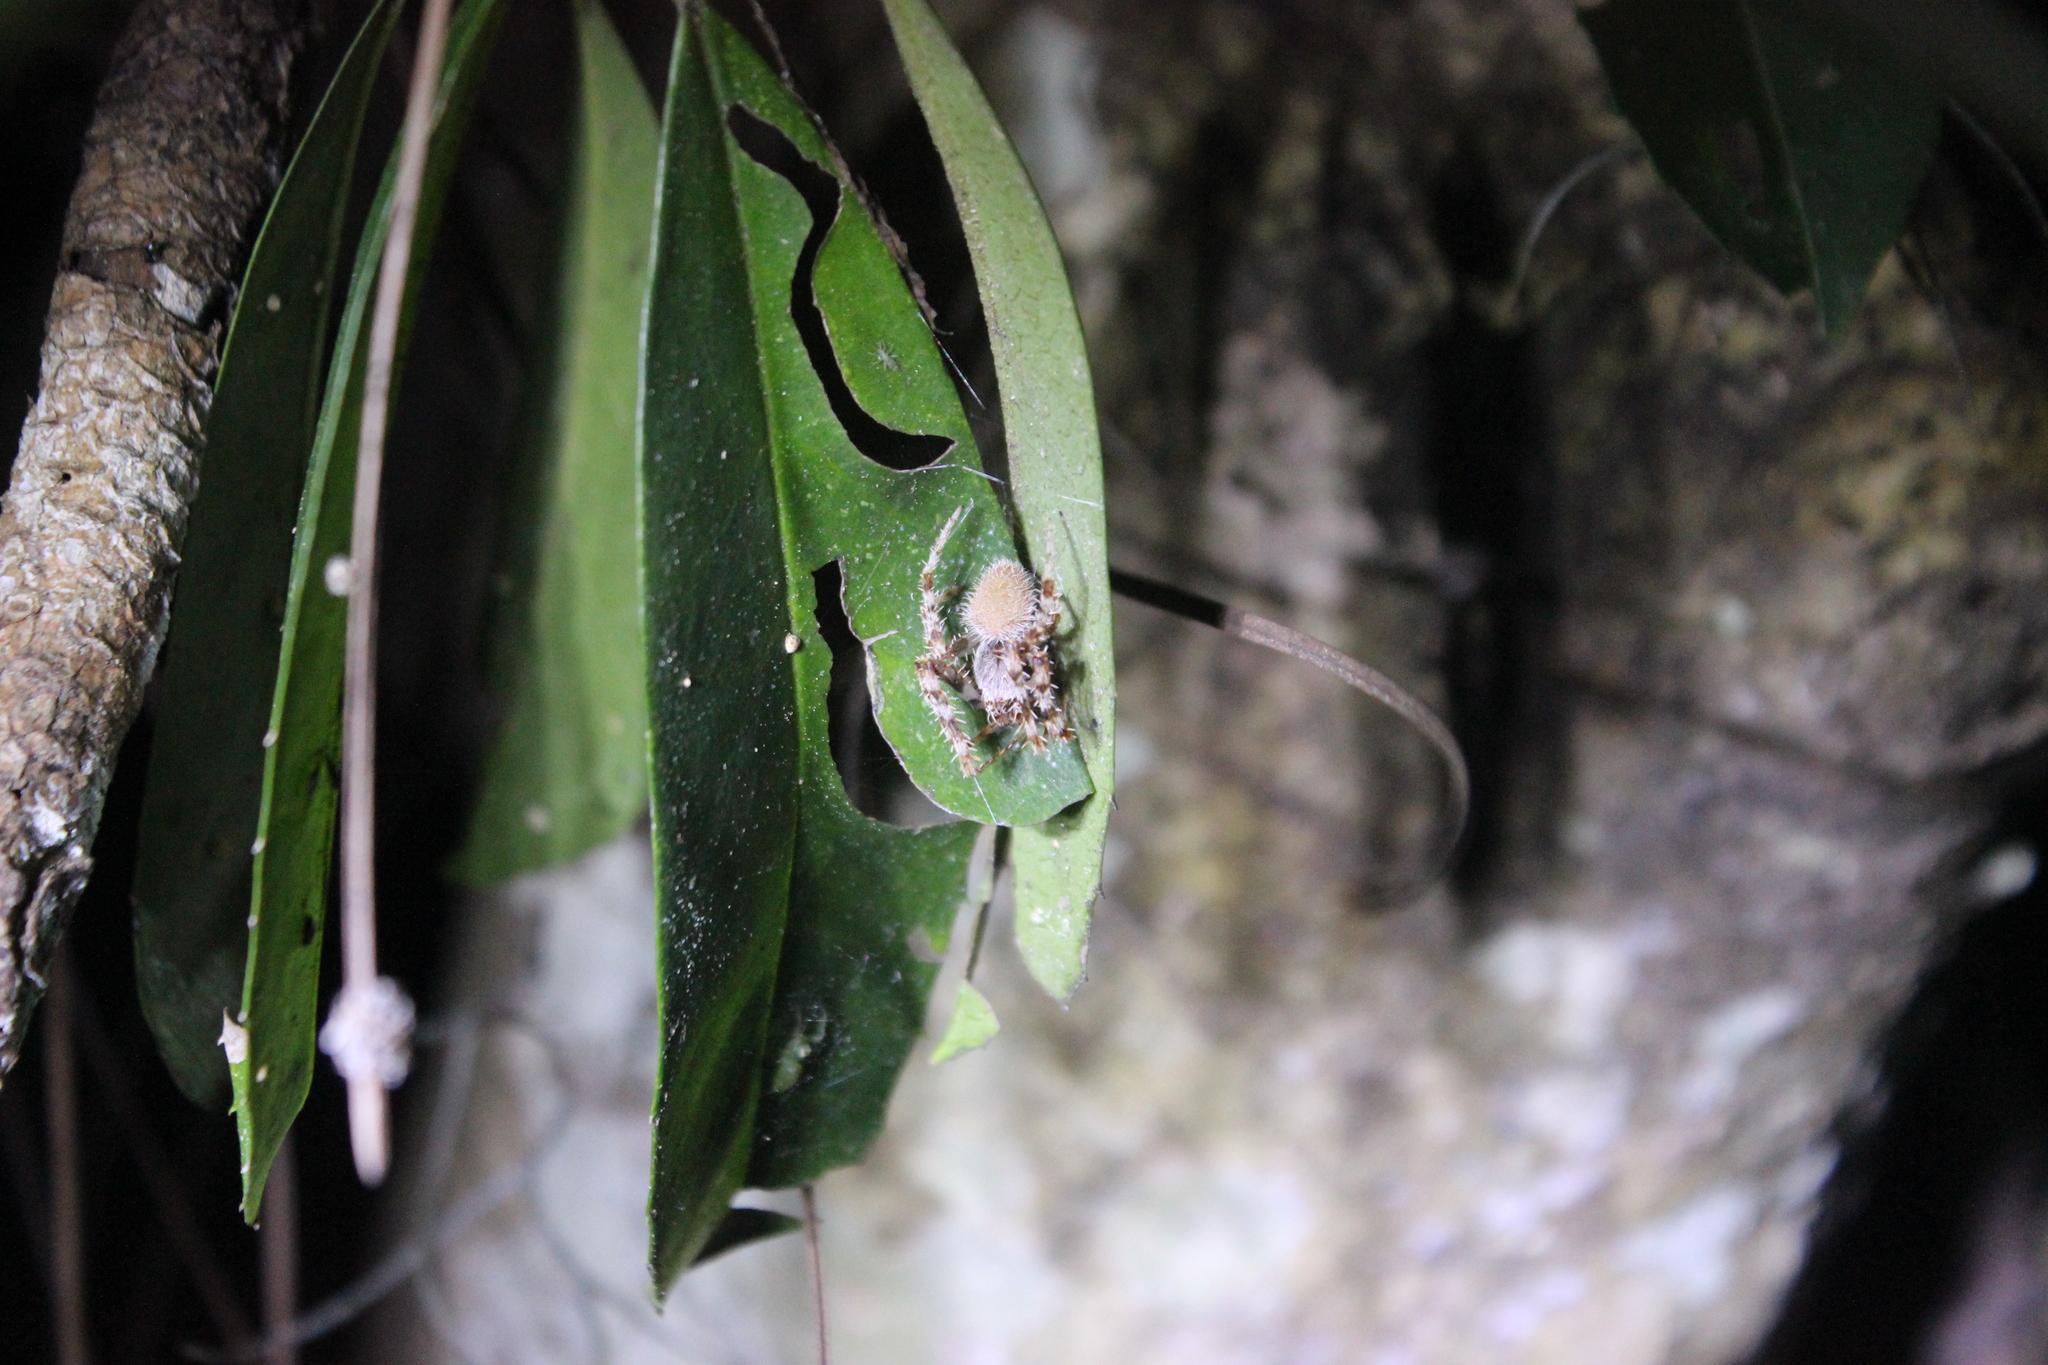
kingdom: Animalia
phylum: Arthropoda
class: Arachnida
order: Araneae
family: Araneidae
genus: Eriophora
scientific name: Eriophora ravilla
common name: Orb weavers
